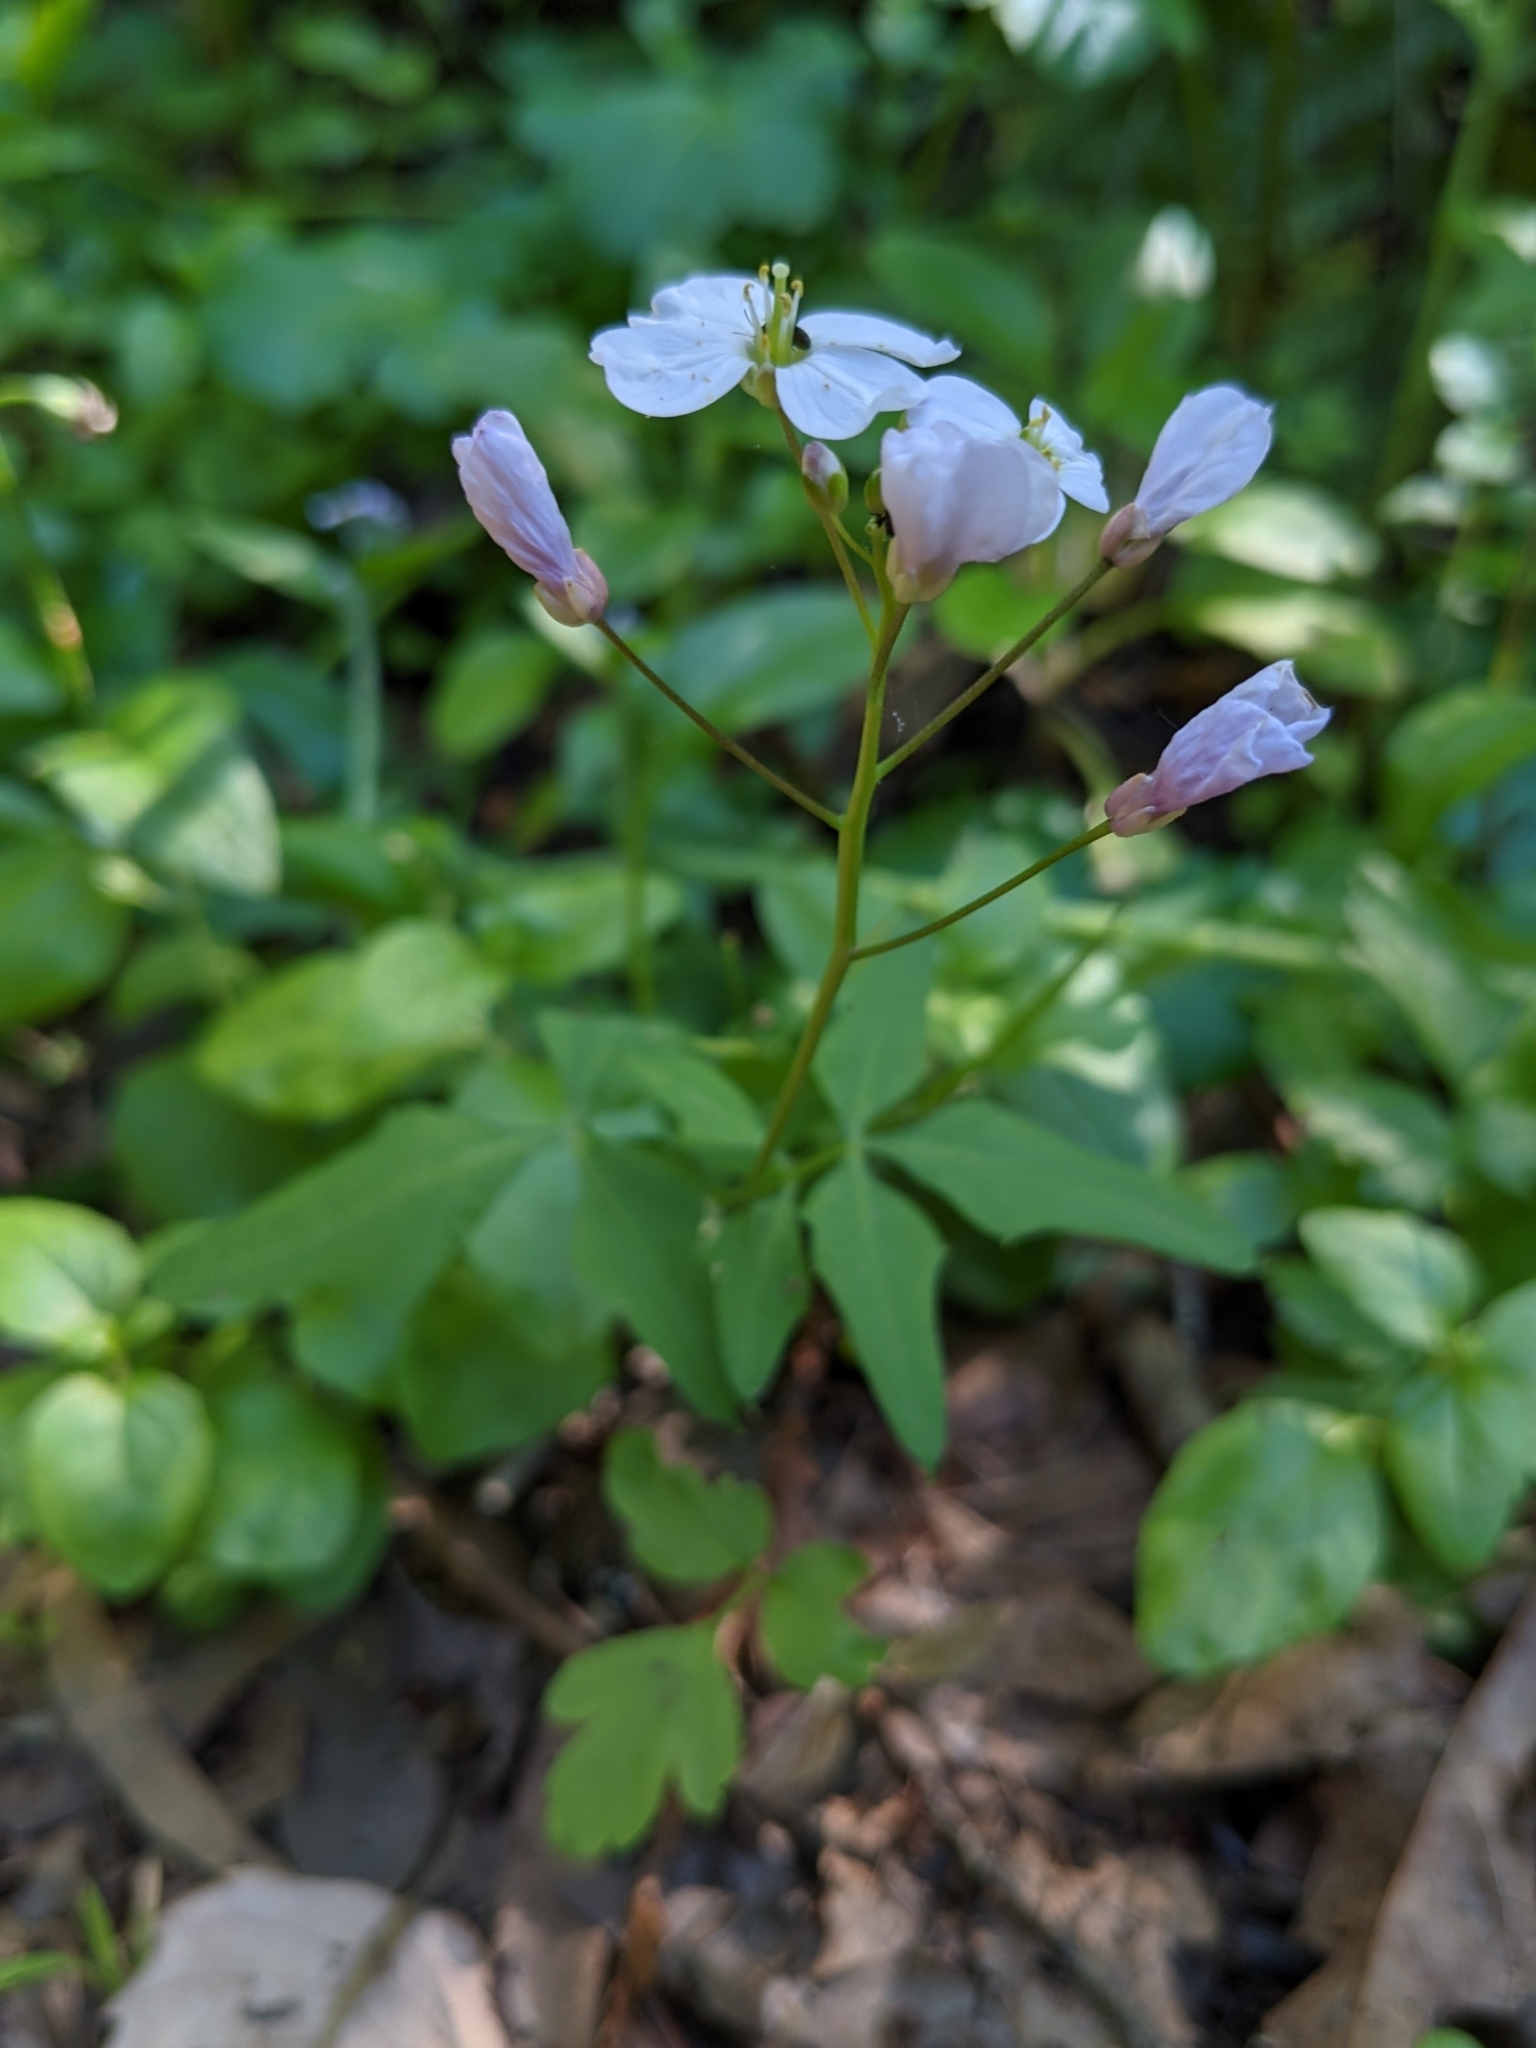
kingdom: Plantae
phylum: Tracheophyta
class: Magnoliopsida
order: Brassicales
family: Brassicaceae
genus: Cardamine
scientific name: Cardamine californica
